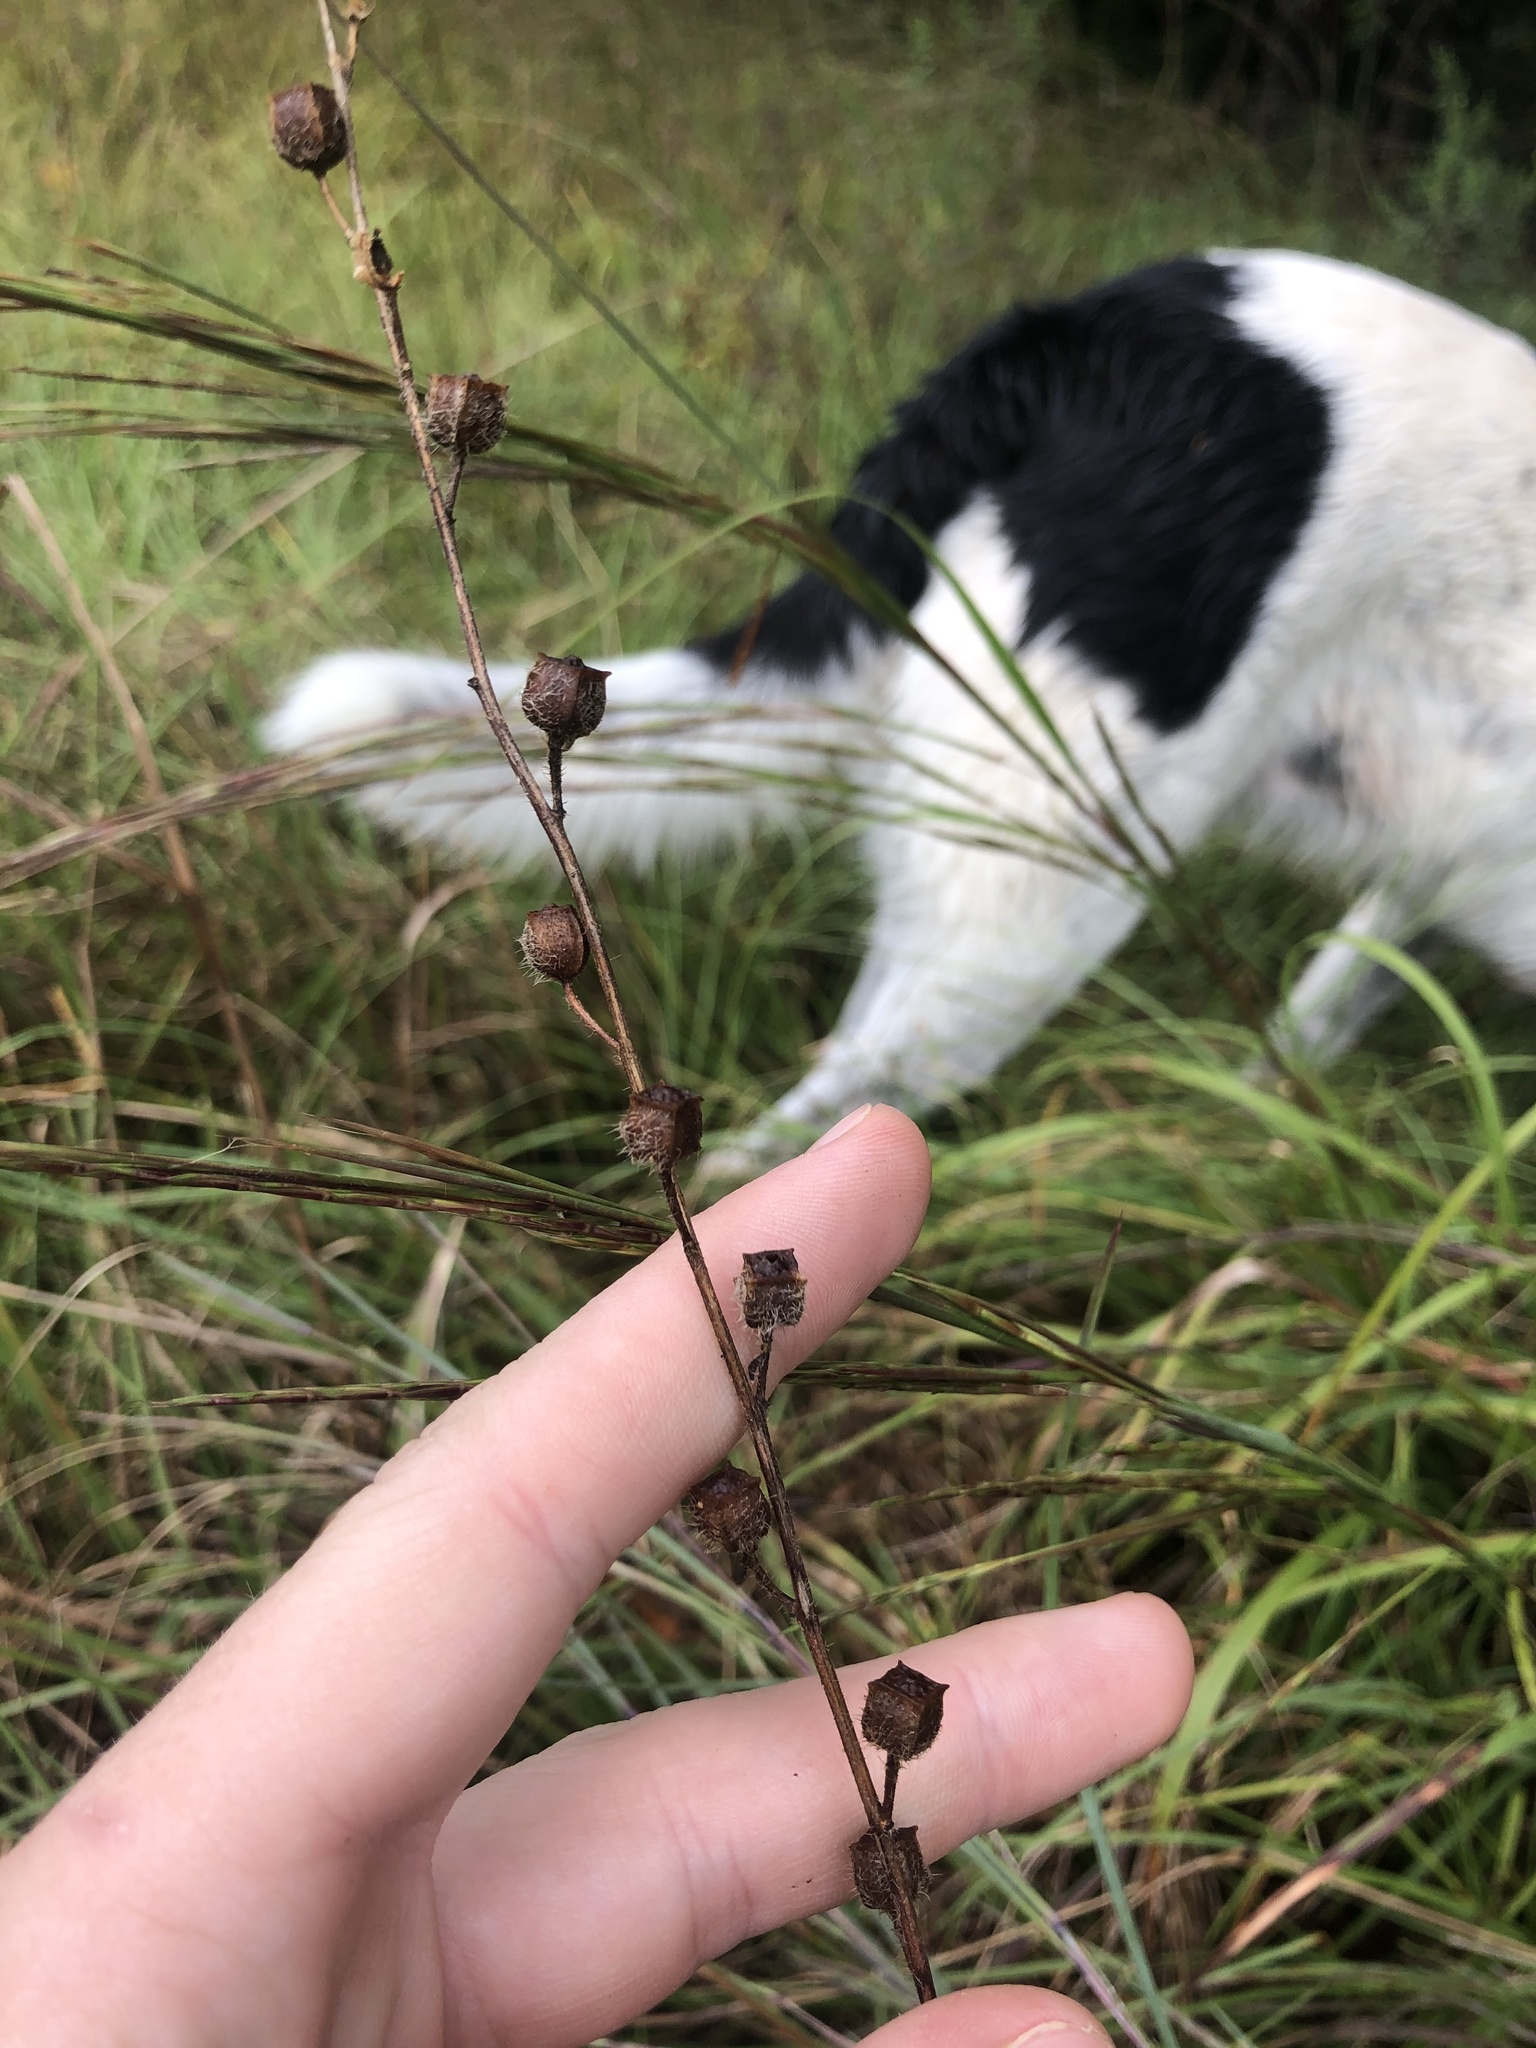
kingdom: Plantae
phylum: Tracheophyta
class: Magnoliopsida
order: Myrtales
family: Onagraceae
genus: Ludwigia
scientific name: Ludwigia hirtella
